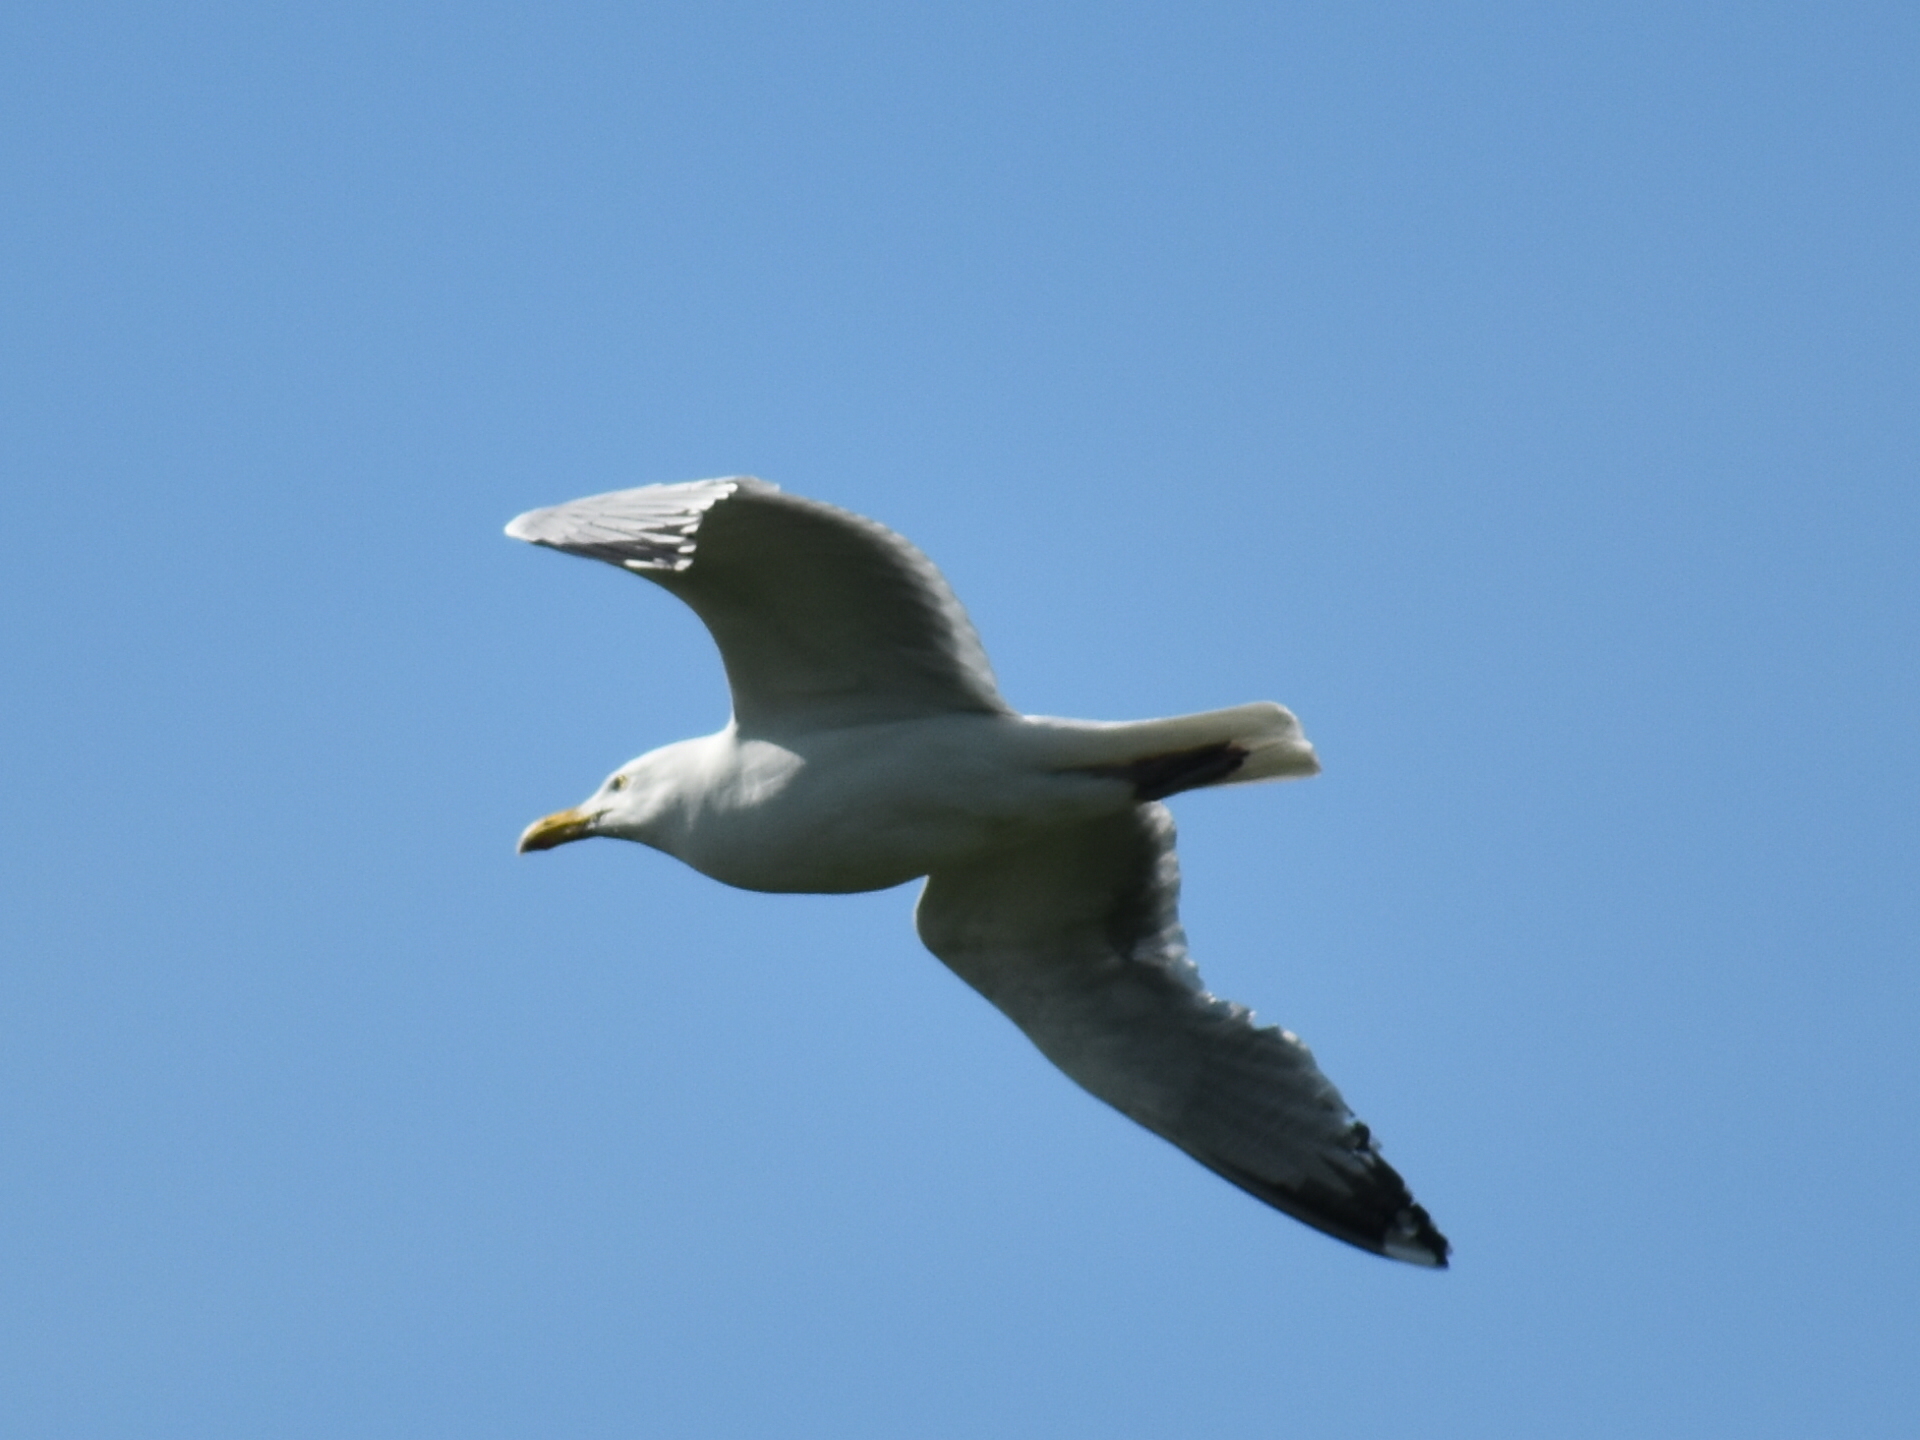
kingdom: Animalia
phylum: Chordata
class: Aves
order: Charadriiformes
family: Laridae
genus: Larus
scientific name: Larus argentatus
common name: Herring gull
